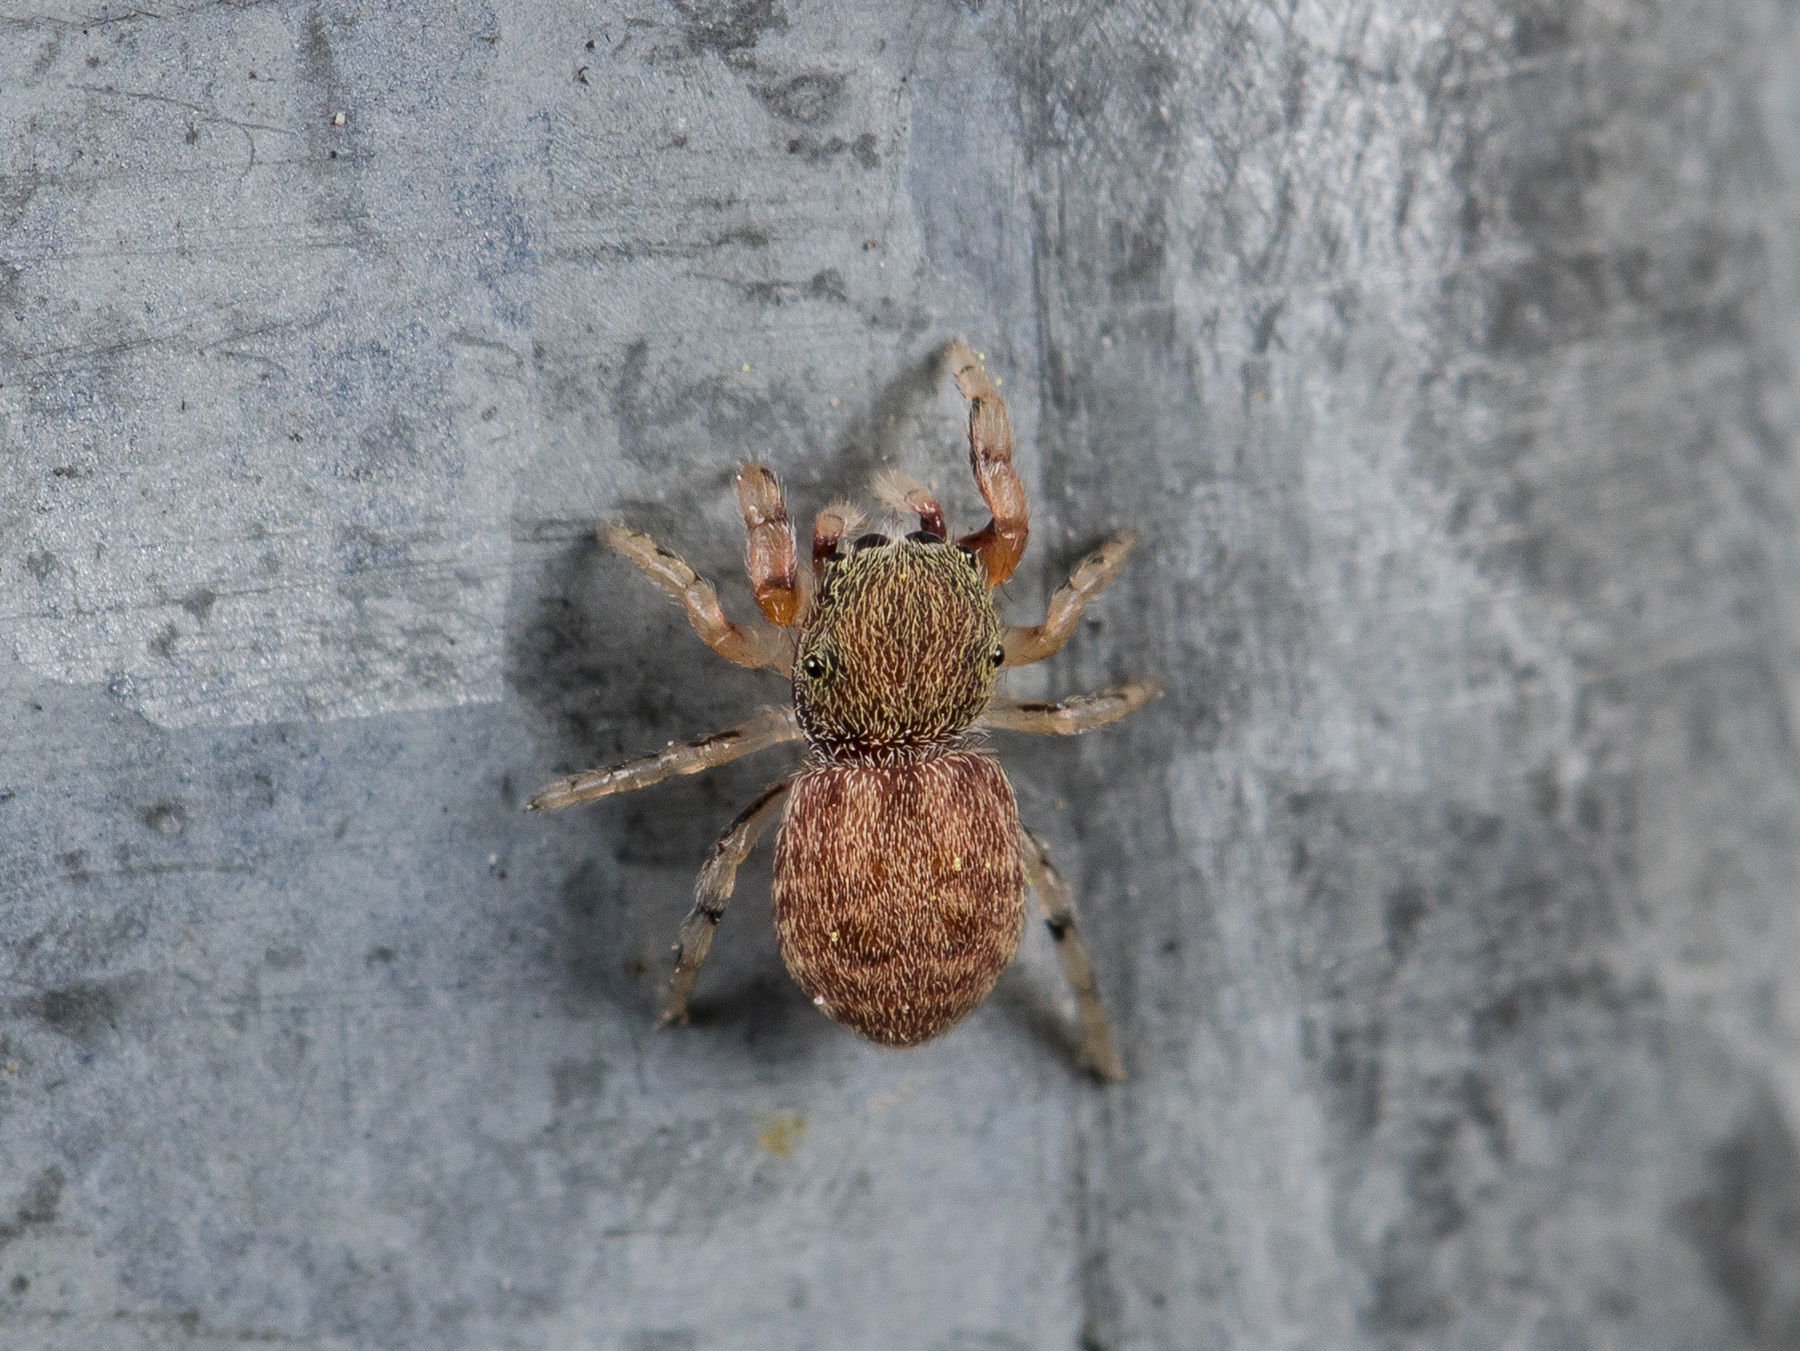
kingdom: Animalia
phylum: Arthropoda
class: Arachnida
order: Araneae
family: Salticidae
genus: Ballus
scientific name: Ballus chalybeius
